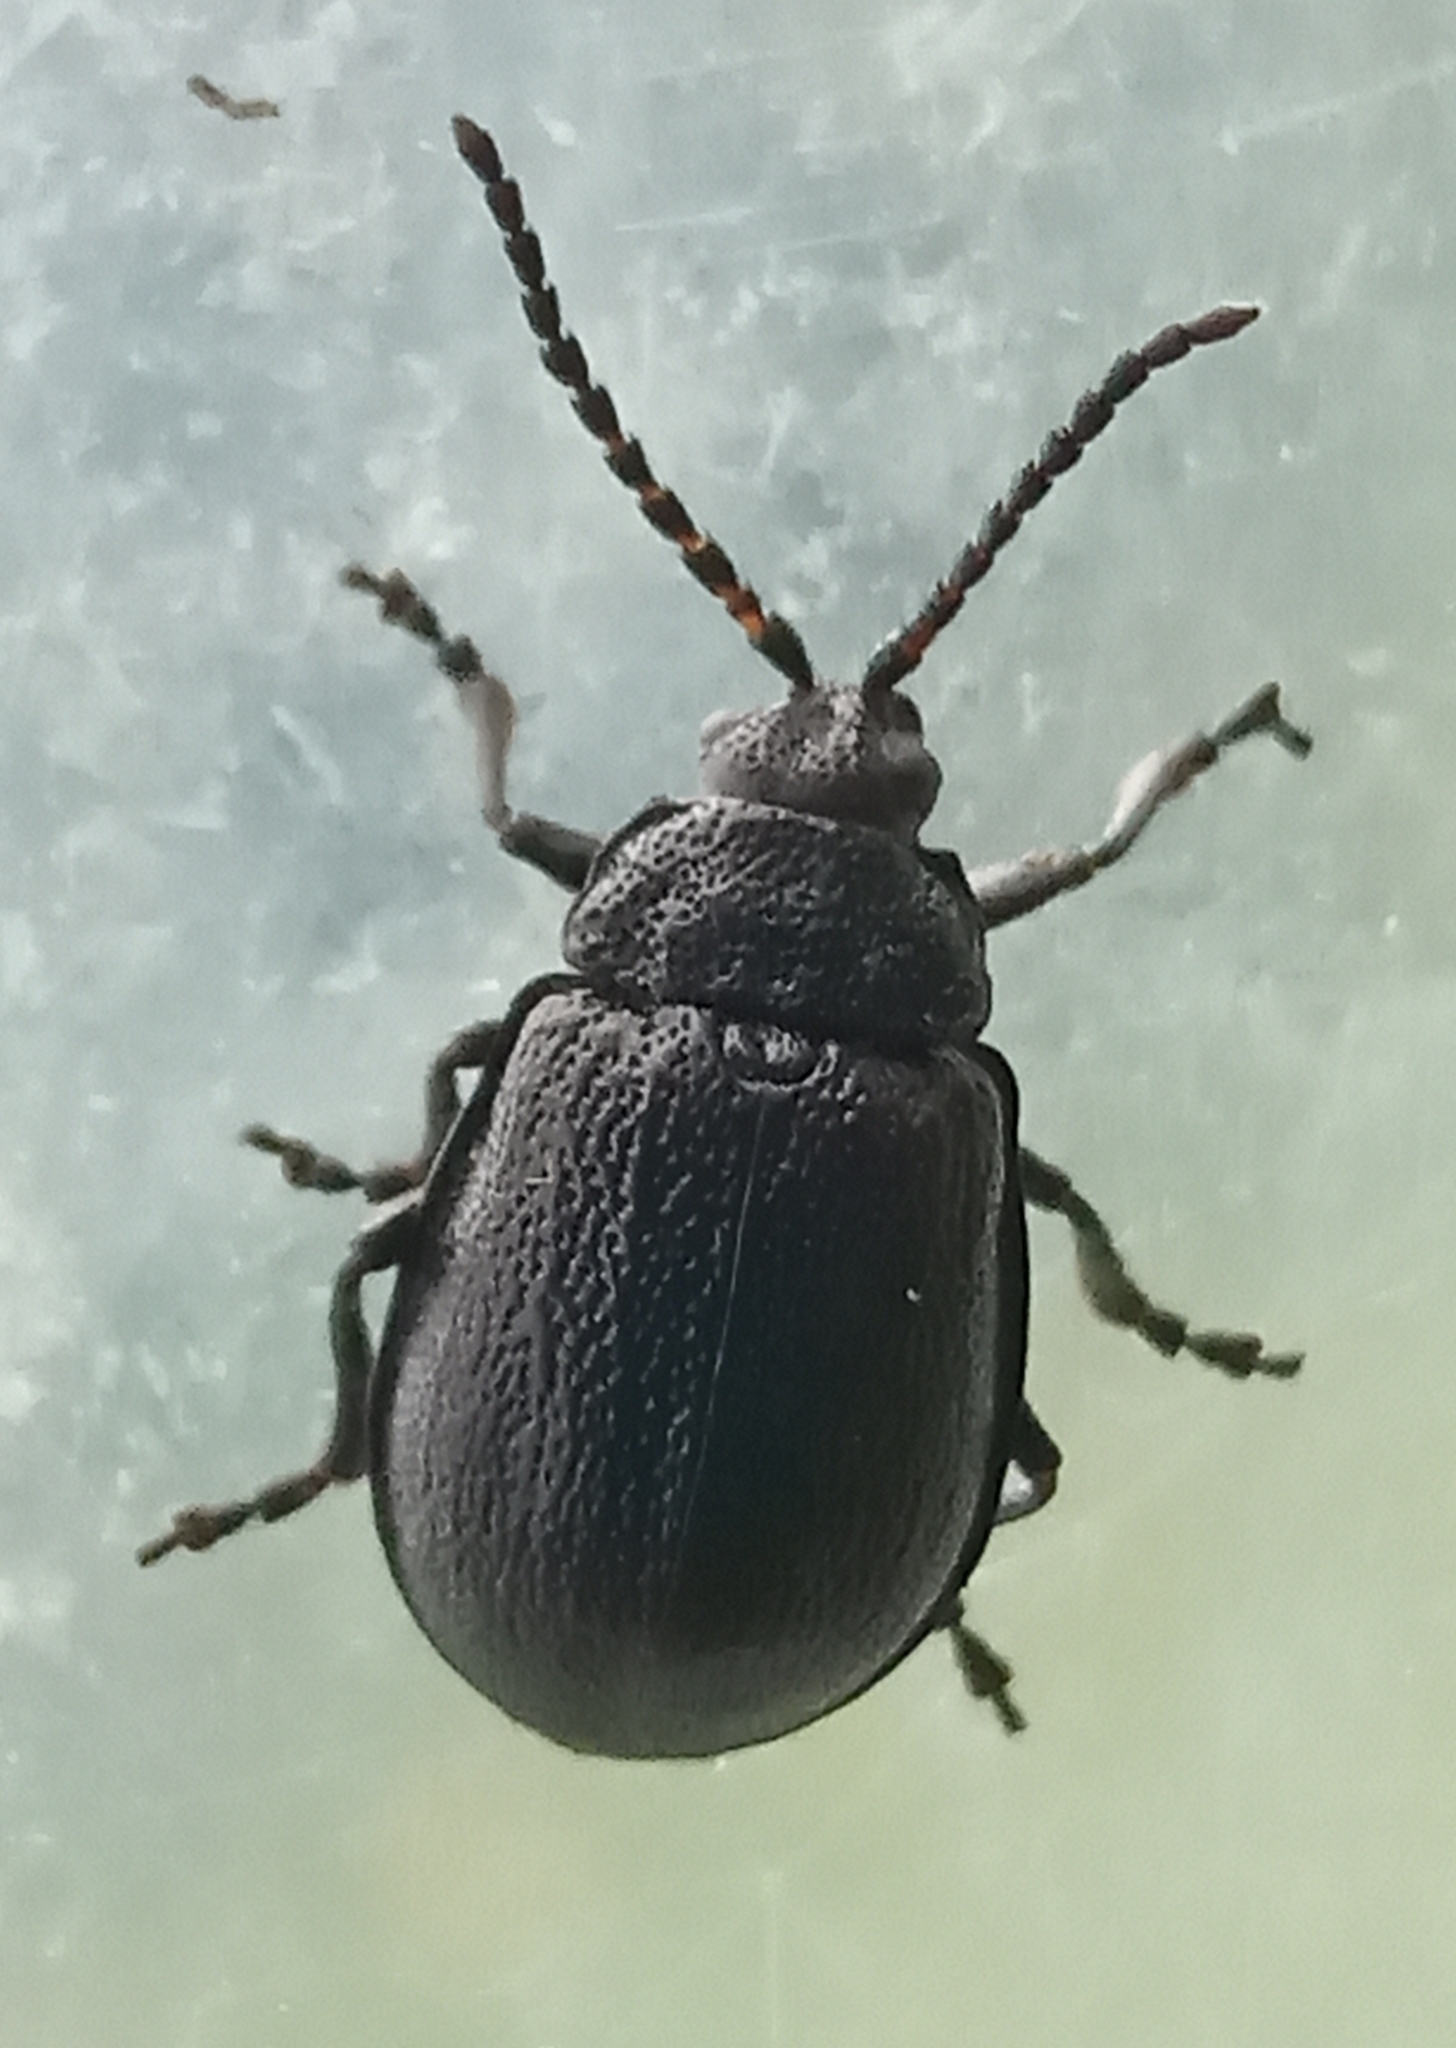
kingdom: Animalia
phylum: Arthropoda
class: Insecta
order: Coleoptera
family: Chrysomelidae
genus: Galeruca
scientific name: Galeruca tanaceti
